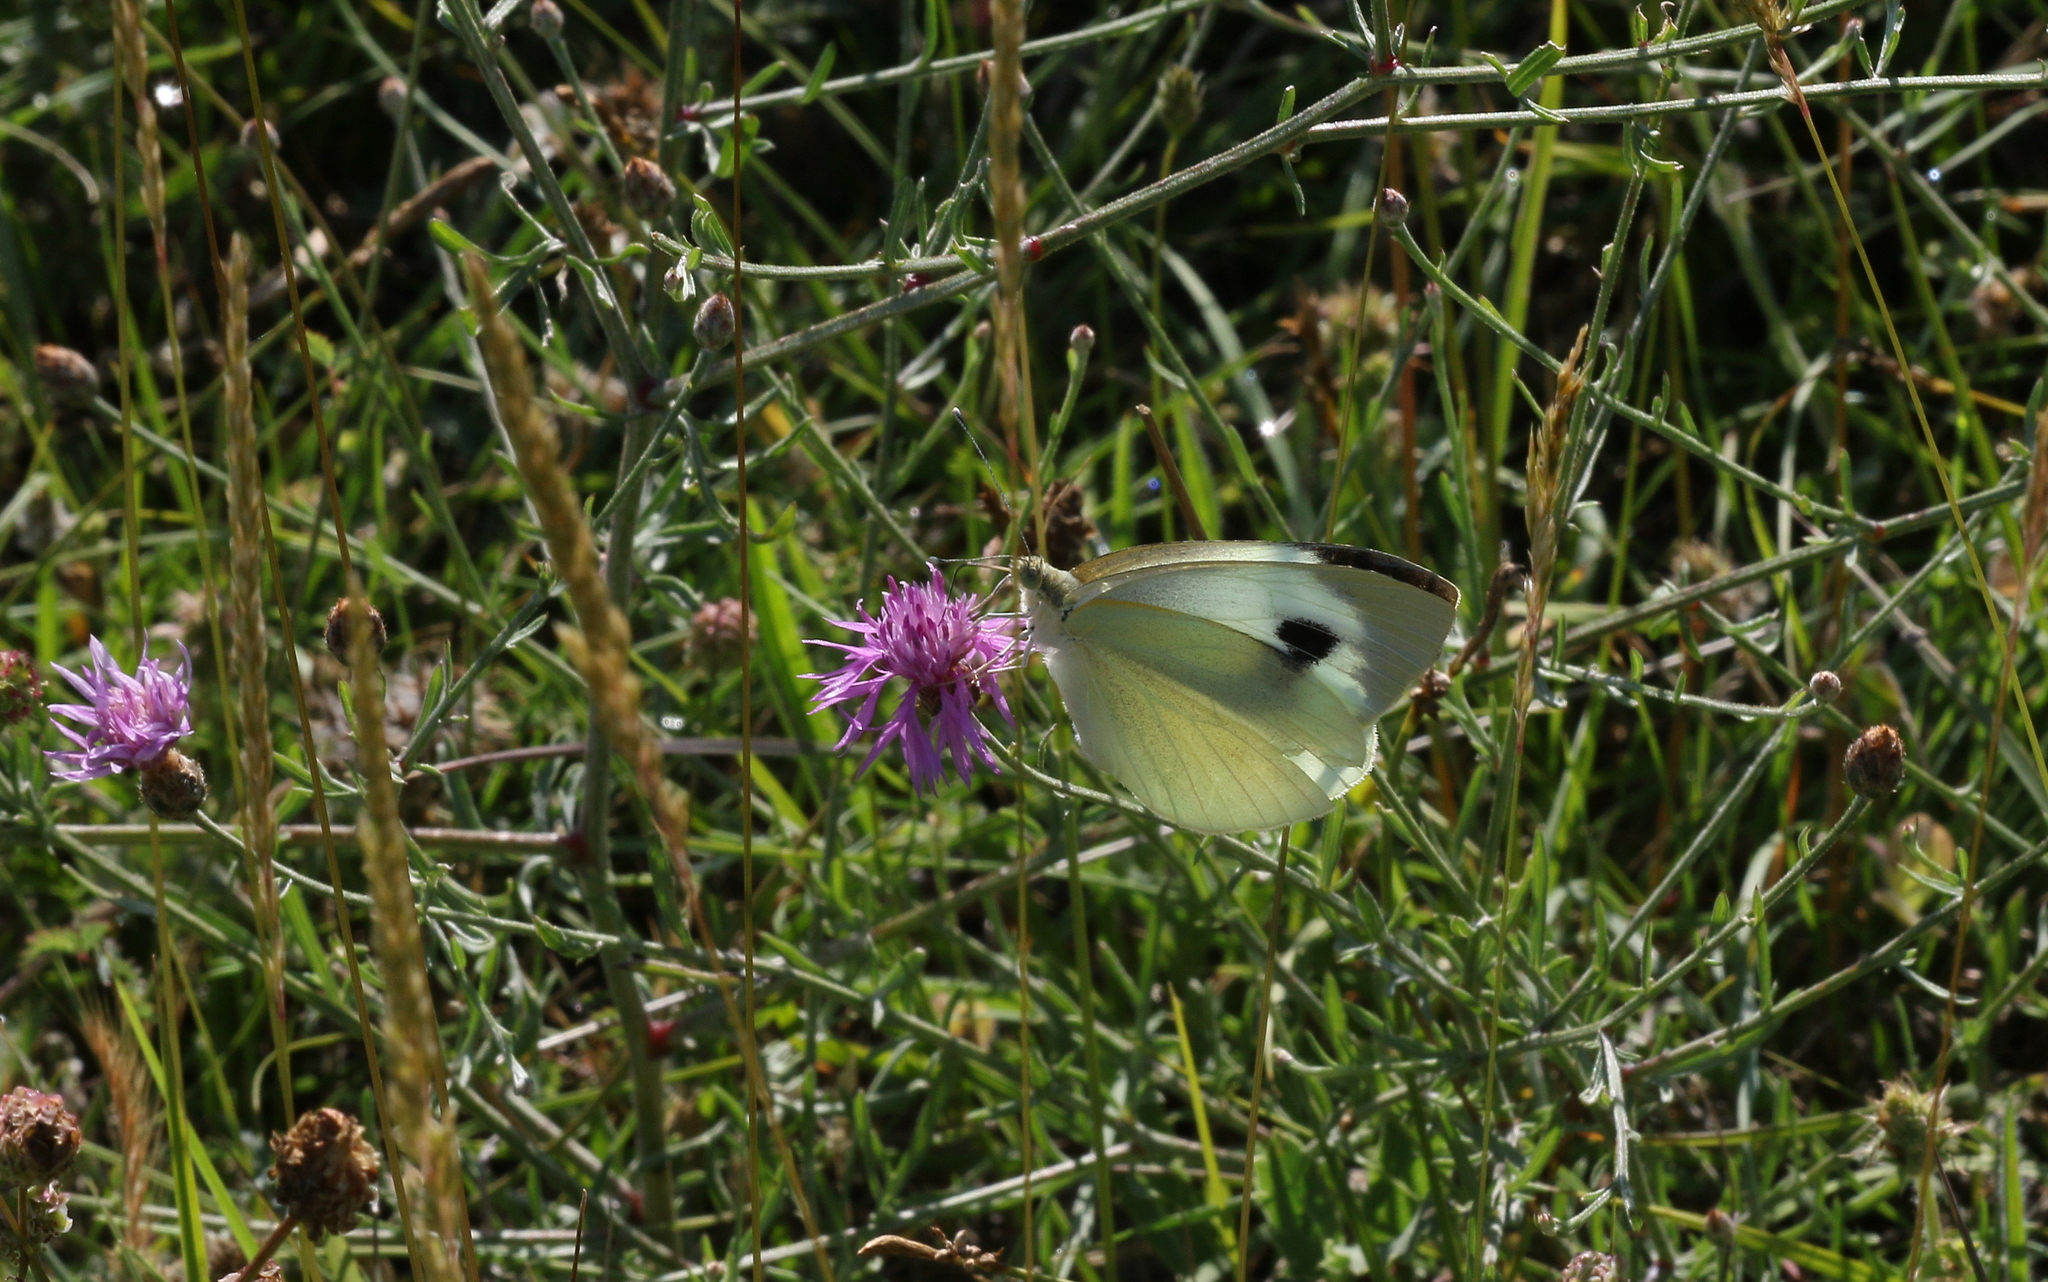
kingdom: Animalia
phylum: Arthropoda
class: Insecta
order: Lepidoptera
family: Pieridae
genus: Pieris
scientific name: Pieris brassicae
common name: Large white
